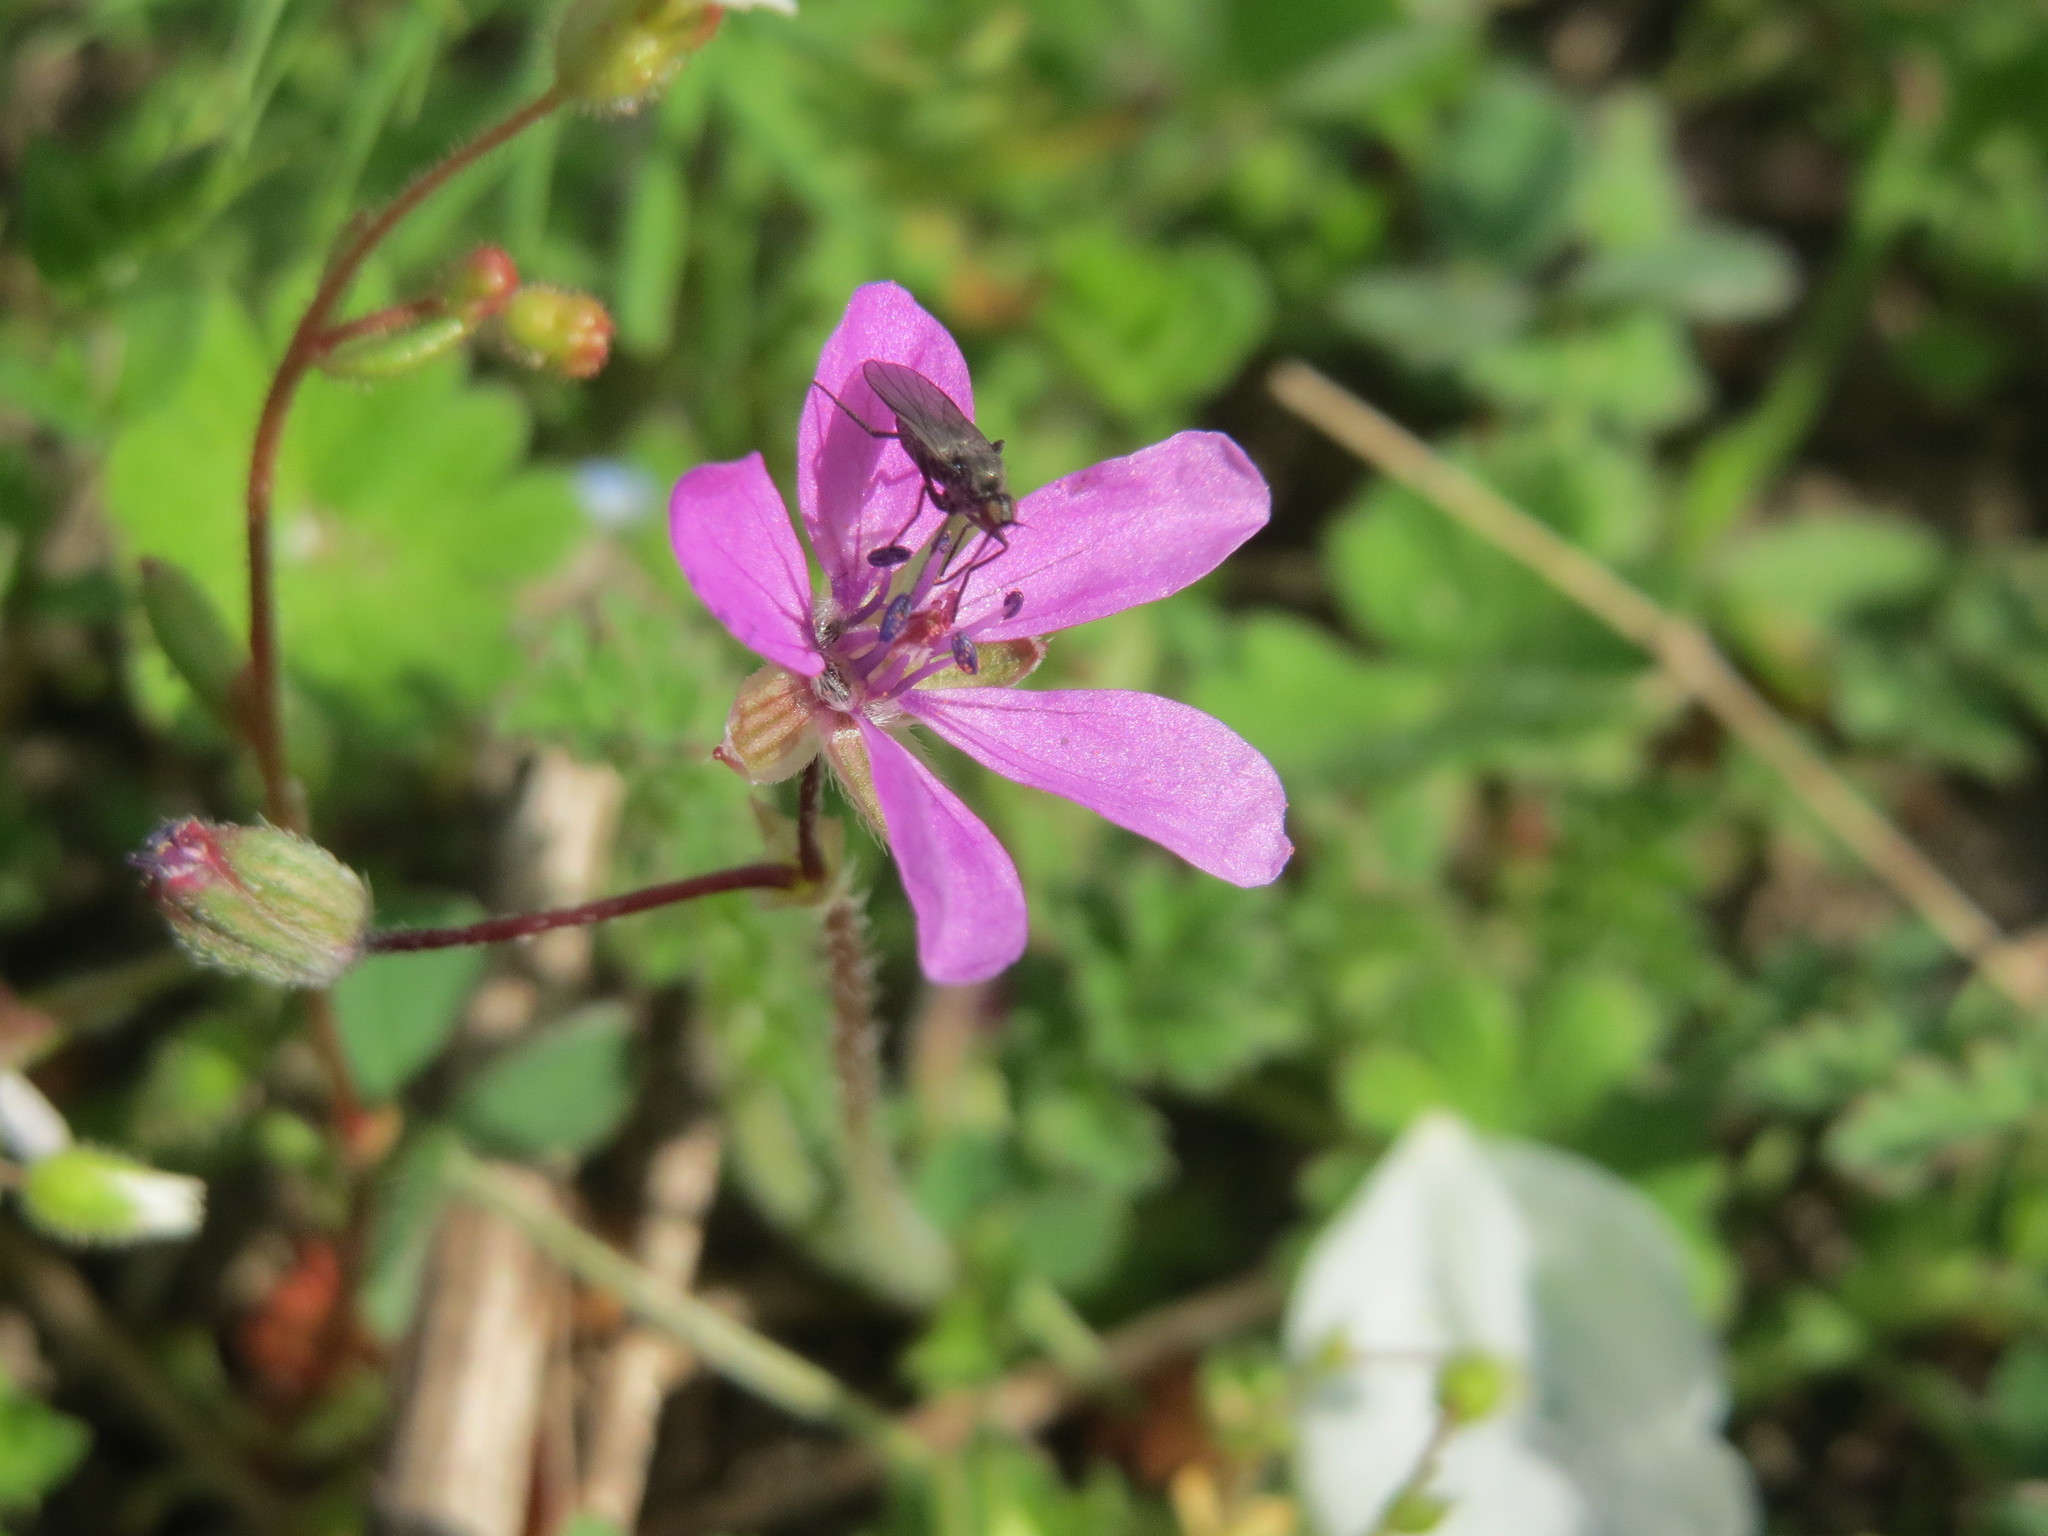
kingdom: Plantae
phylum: Tracheophyta
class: Magnoliopsida
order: Geraniales
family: Geraniaceae
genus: Erodium
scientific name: Erodium cicutarium
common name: Common stork's-bill
